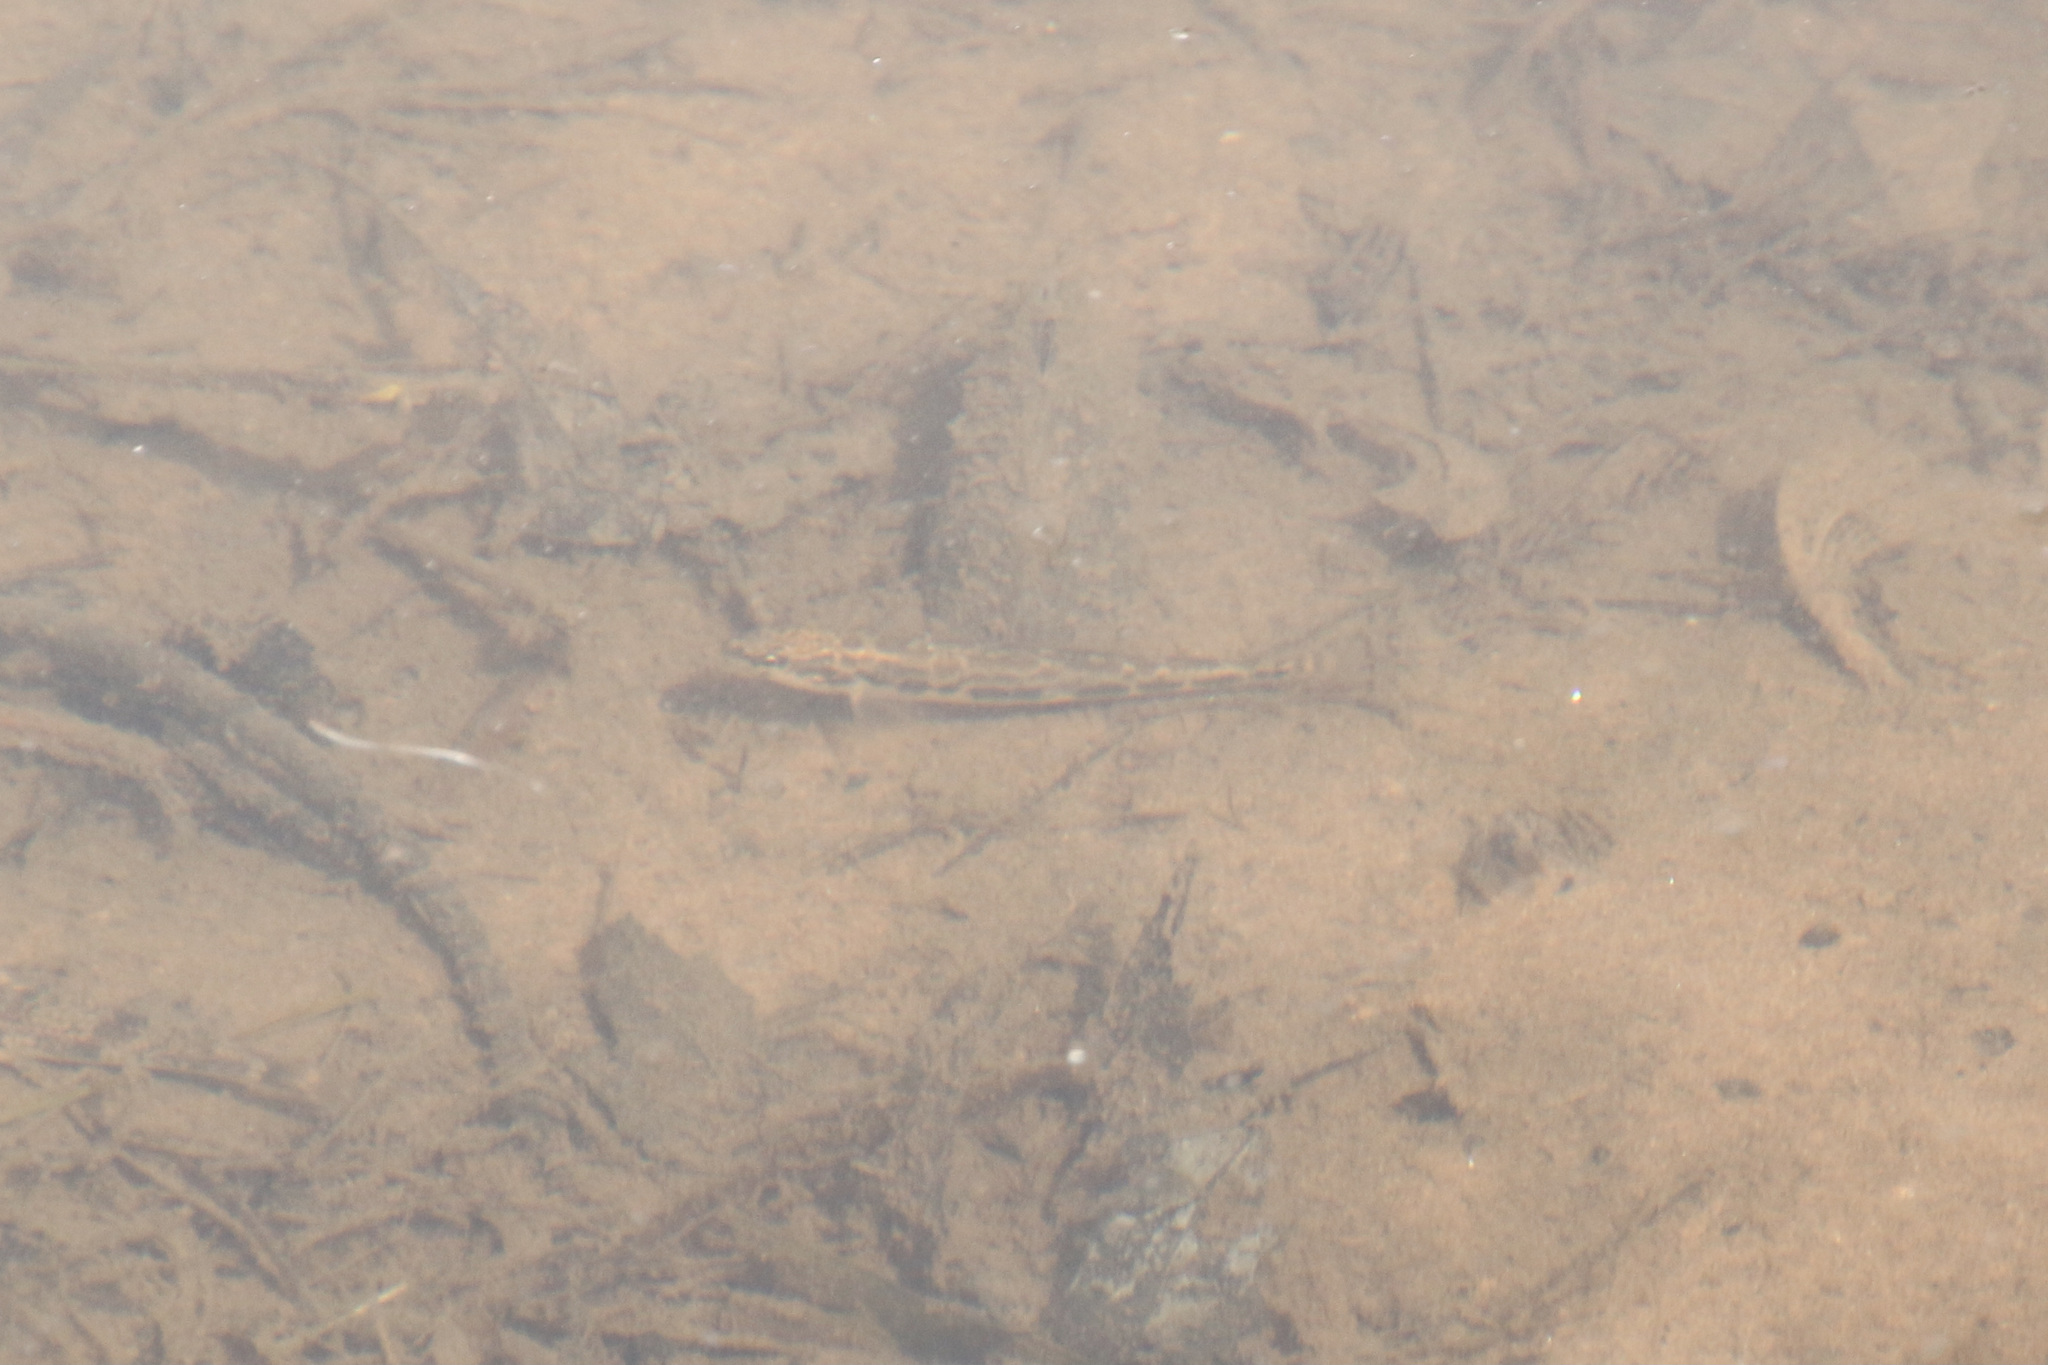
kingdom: Animalia
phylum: Chordata
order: Perciformes
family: Percidae
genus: Percina
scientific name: Percina maculata
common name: Blackside darter
